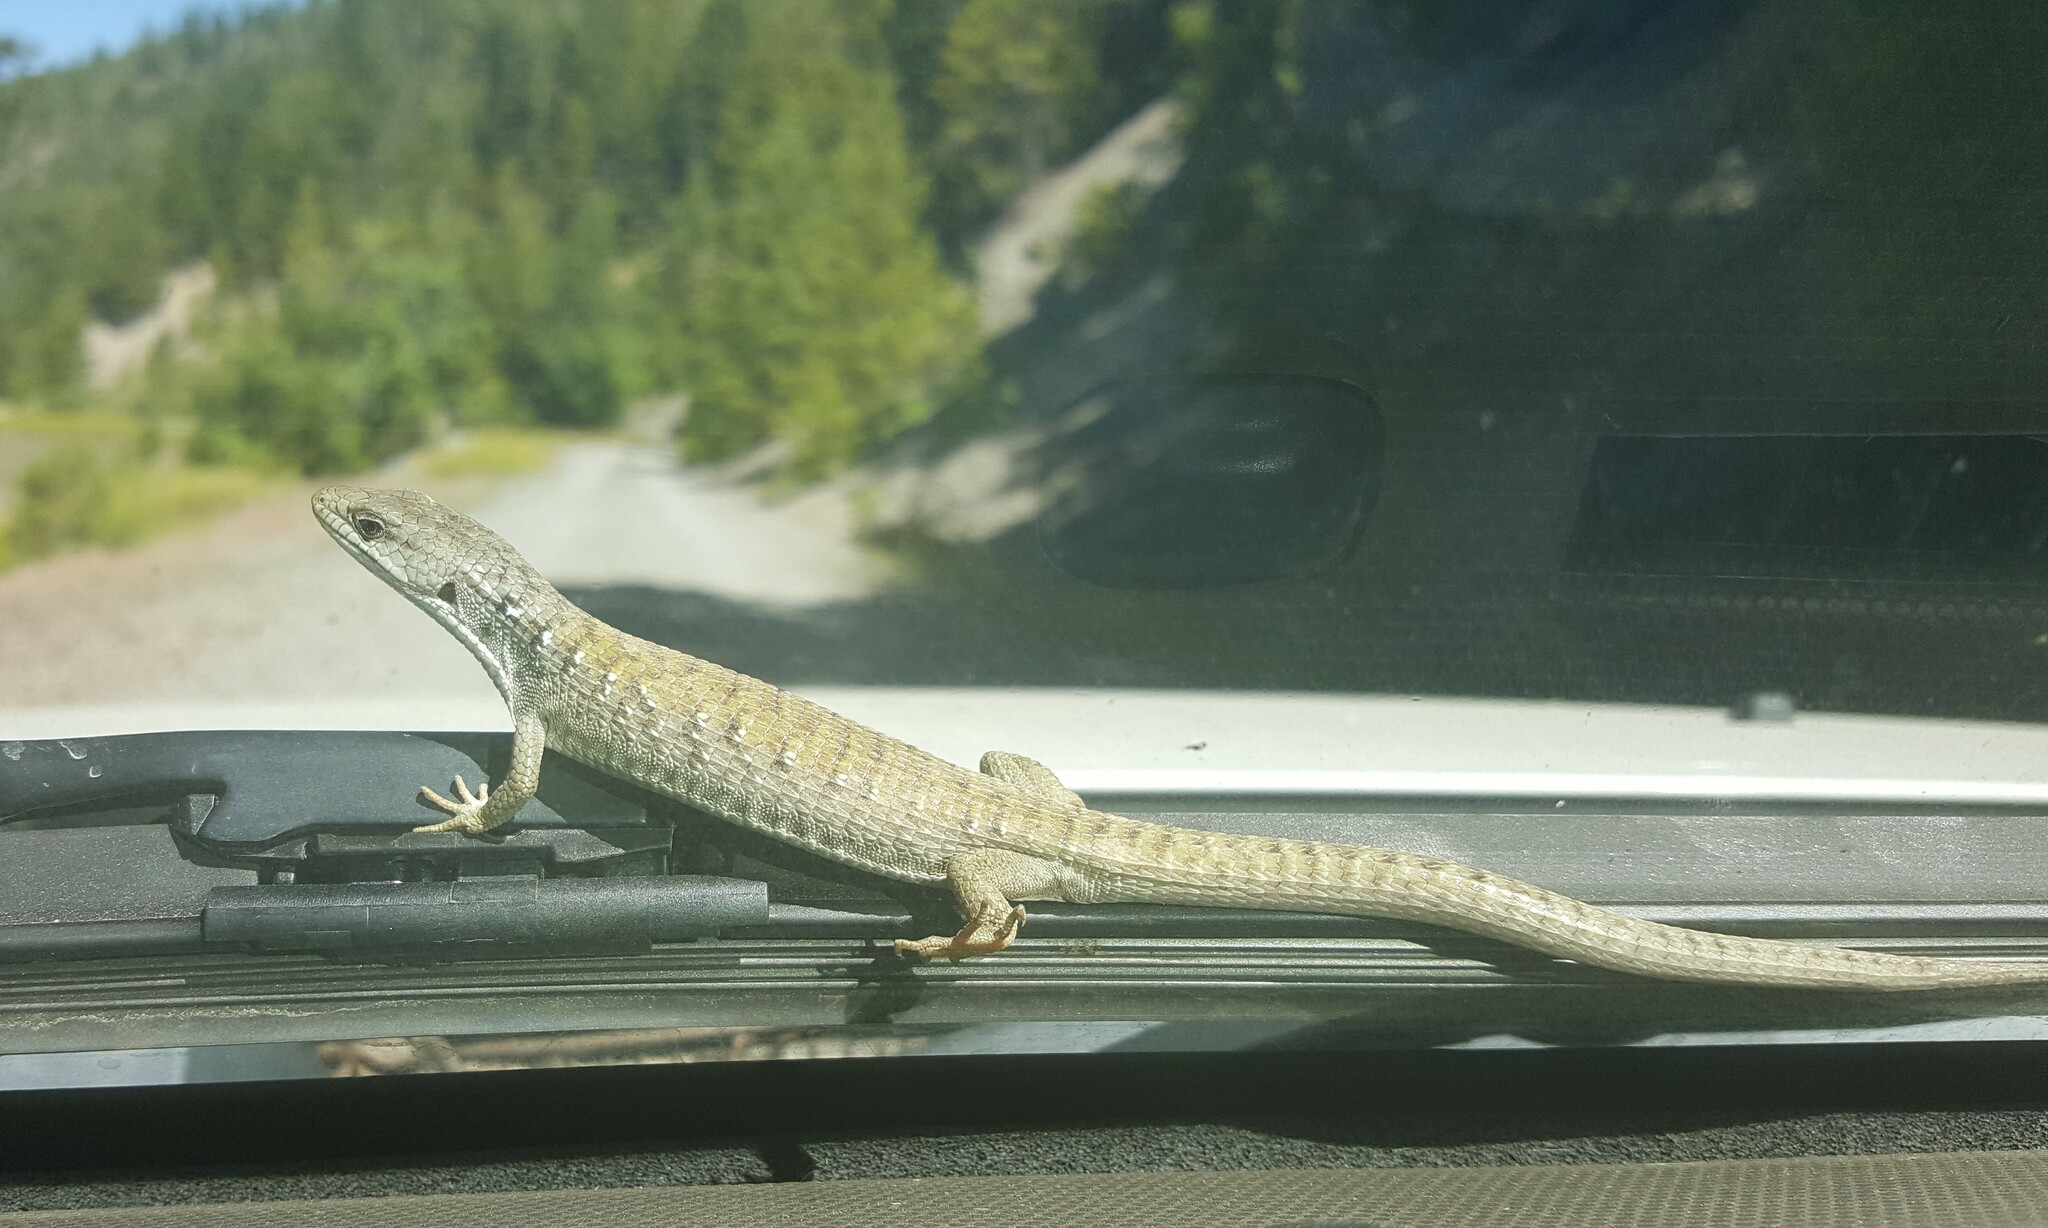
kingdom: Animalia
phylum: Chordata
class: Squamata
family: Anguidae
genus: Elgaria
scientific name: Elgaria coerulea
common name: Northern alligator lizard
